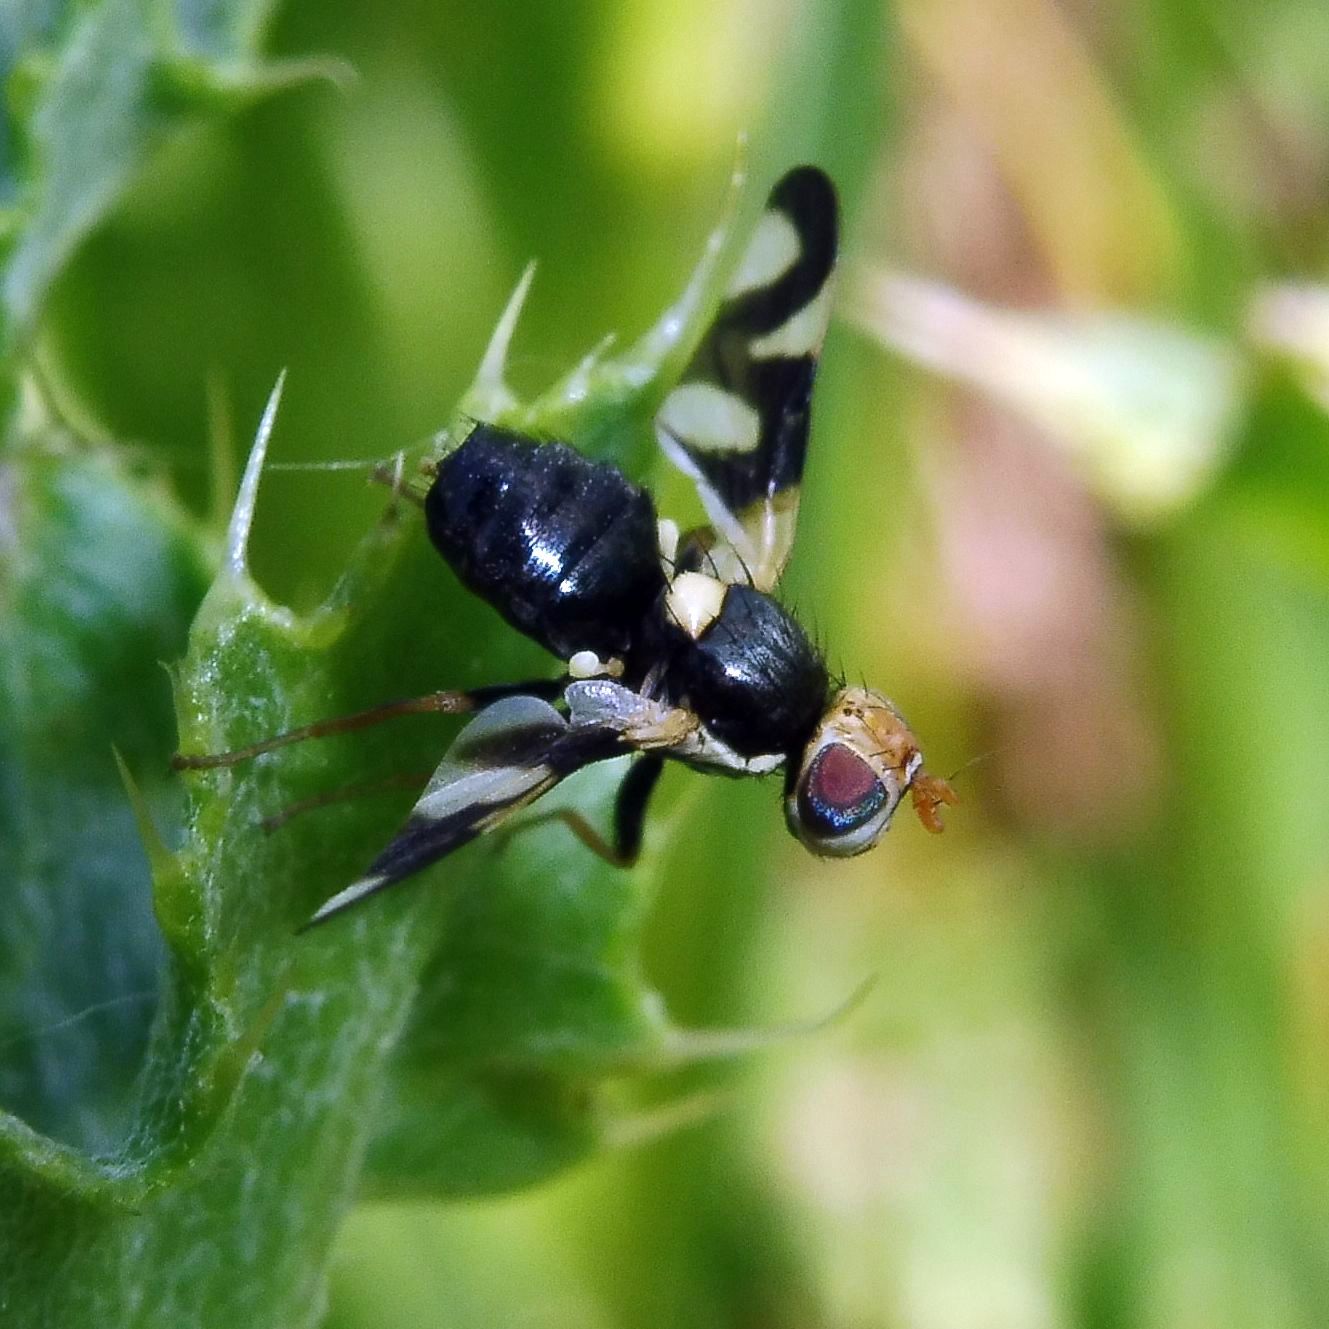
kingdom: Animalia
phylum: Arthropoda
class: Insecta
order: Diptera
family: Tephritidae
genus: Urophora
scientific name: Urophora cardui
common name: Fruit fly
